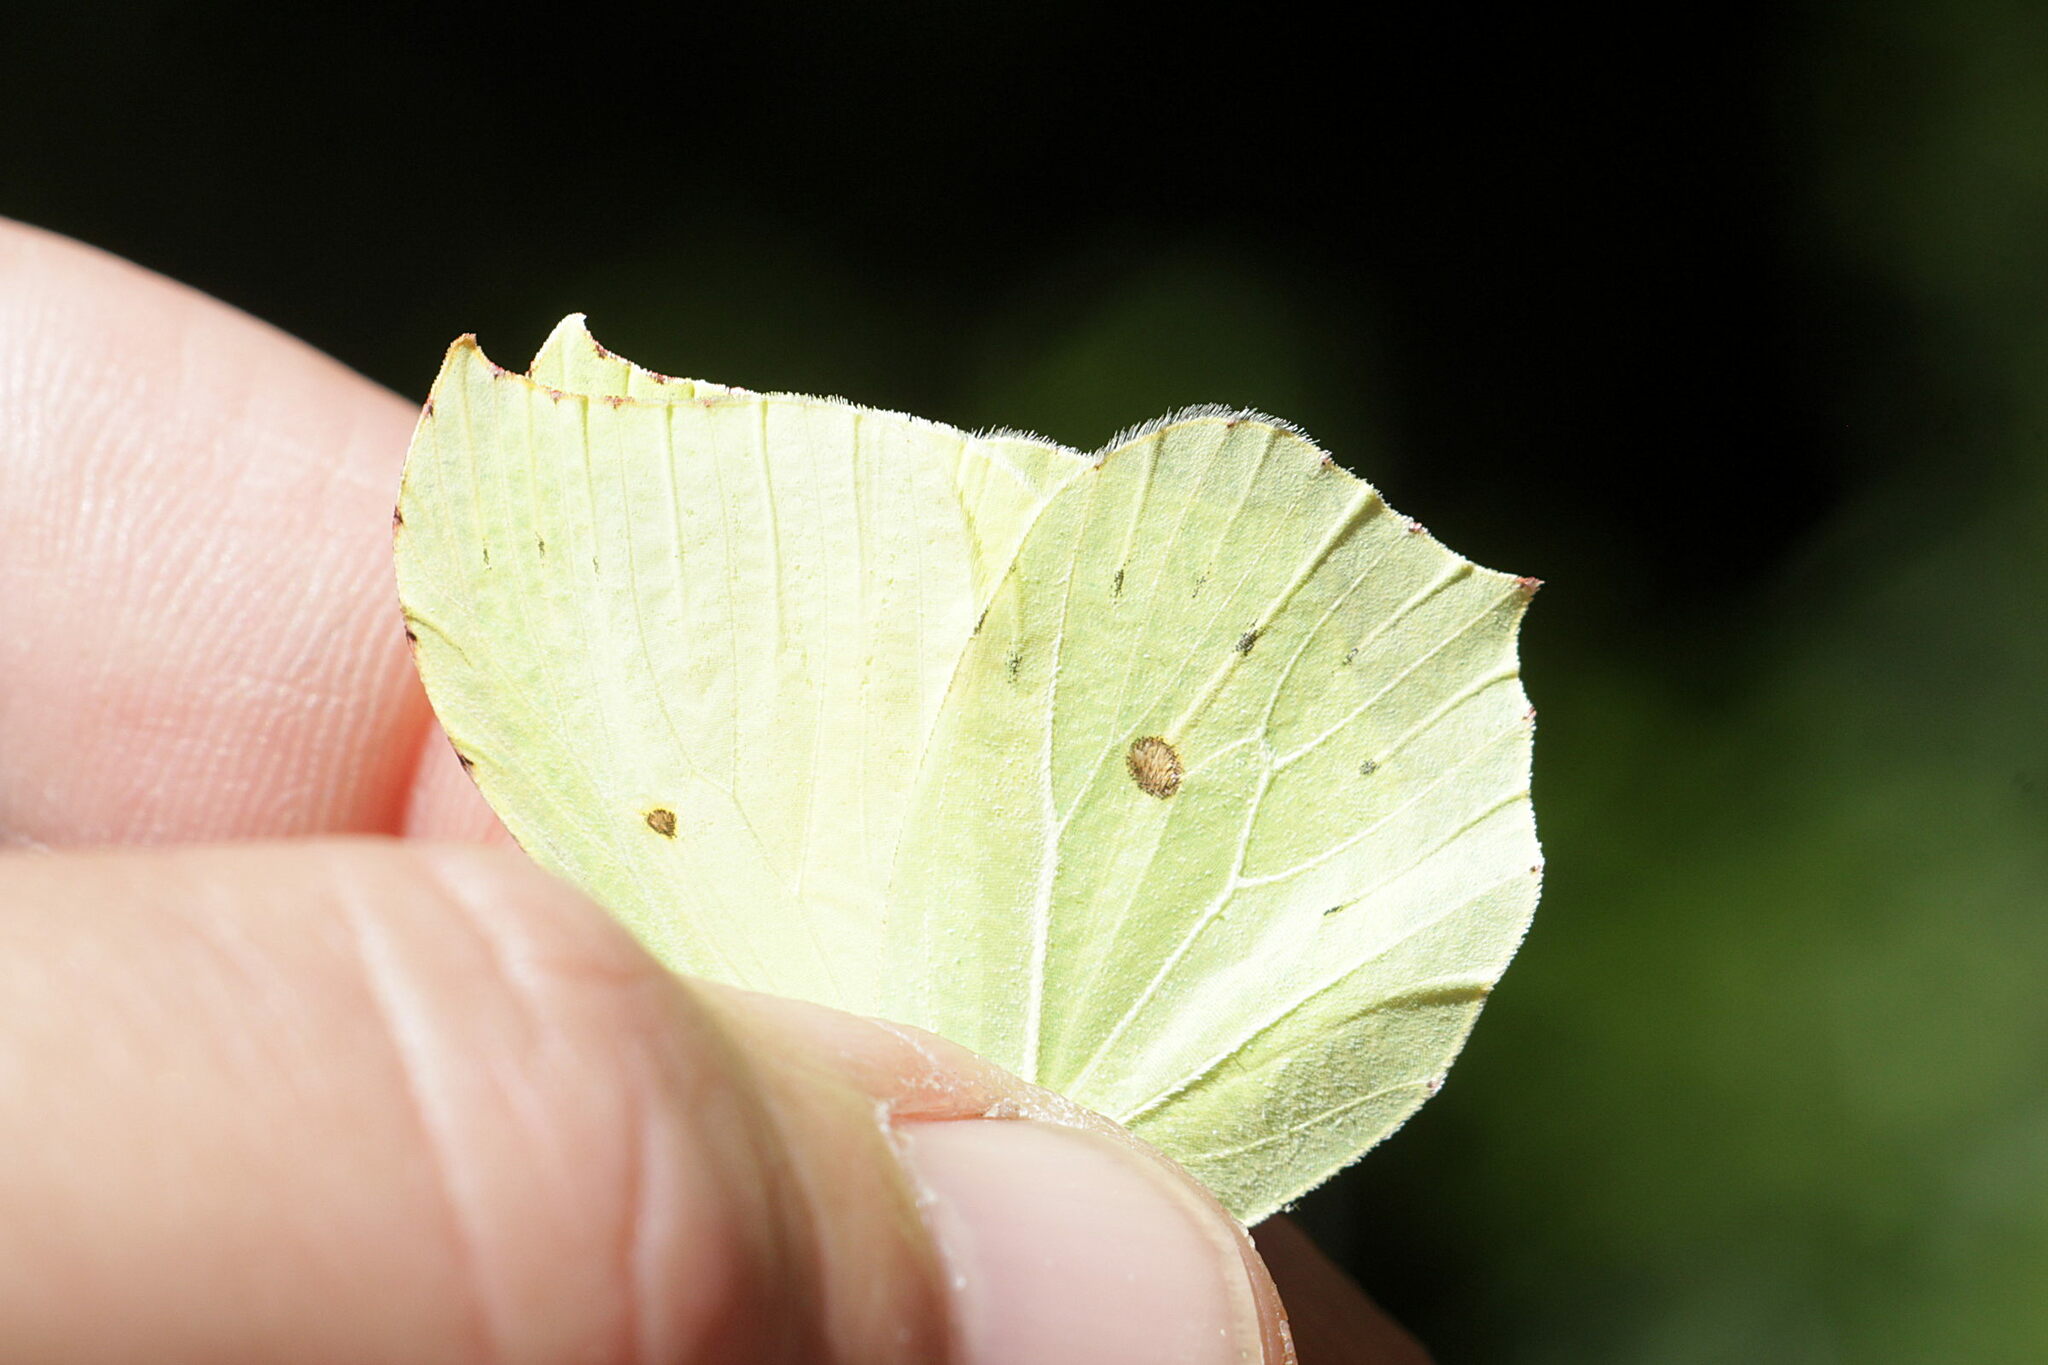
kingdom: Animalia
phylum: Arthropoda
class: Insecta
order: Lepidoptera
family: Pieridae
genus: Gonepteryx
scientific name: Gonepteryx rhamni
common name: Brimstone
